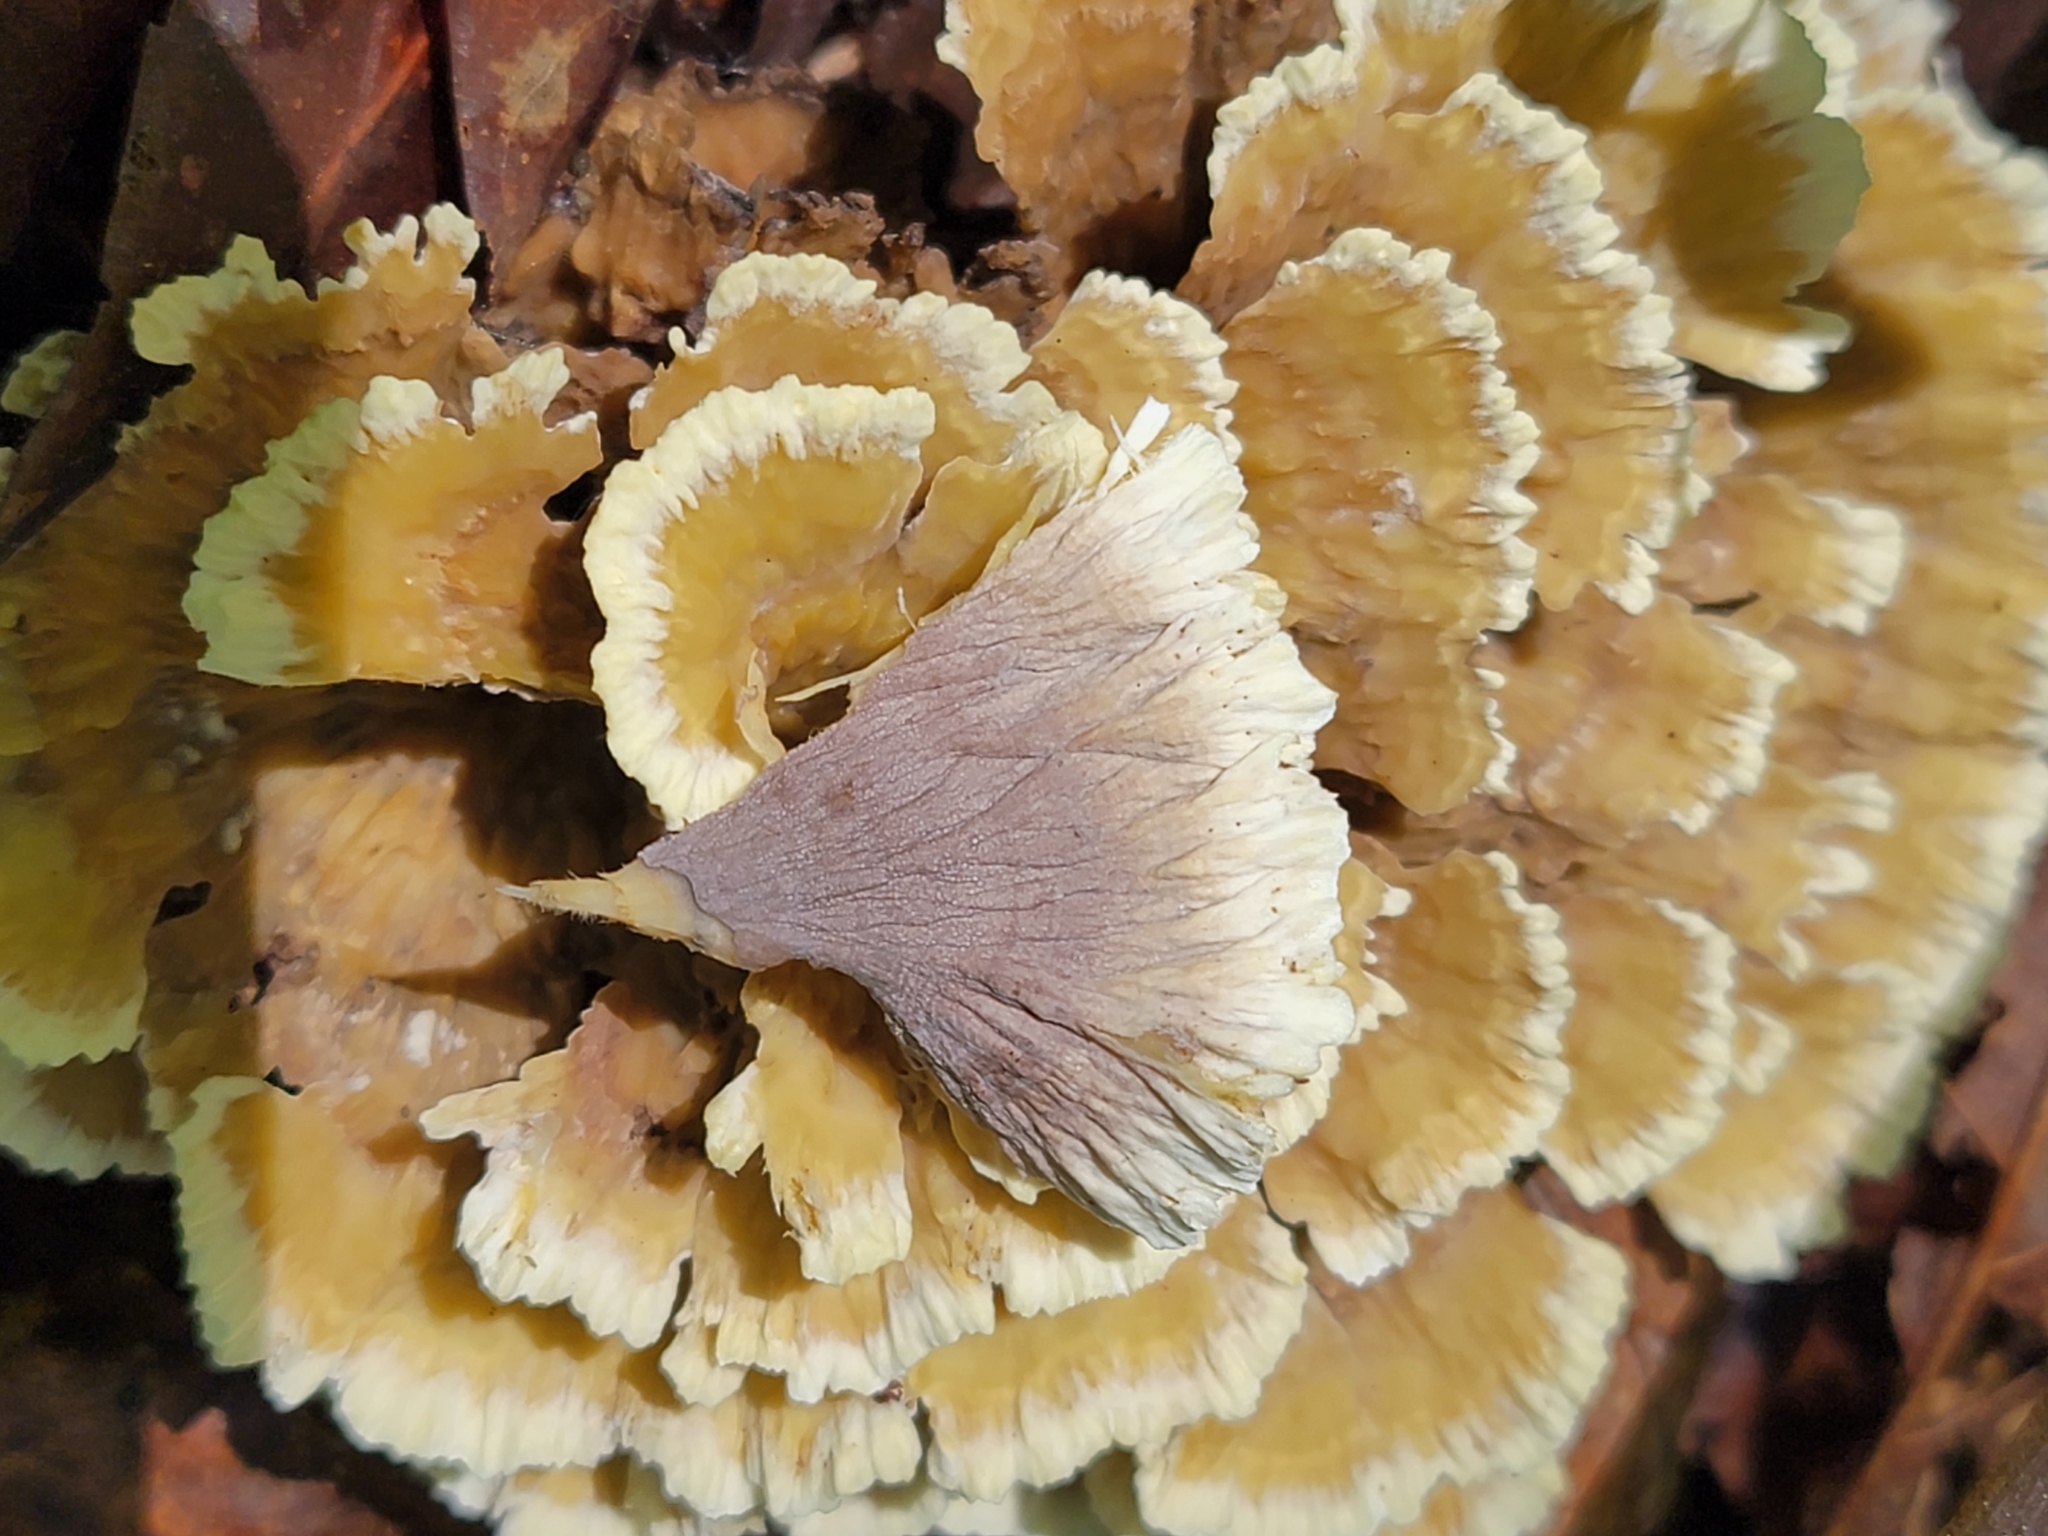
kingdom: Fungi
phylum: Basidiomycota
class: Agaricomycetes
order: Thelephorales
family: Thelephoraceae
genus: Thelephora
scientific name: Thelephora vialis
